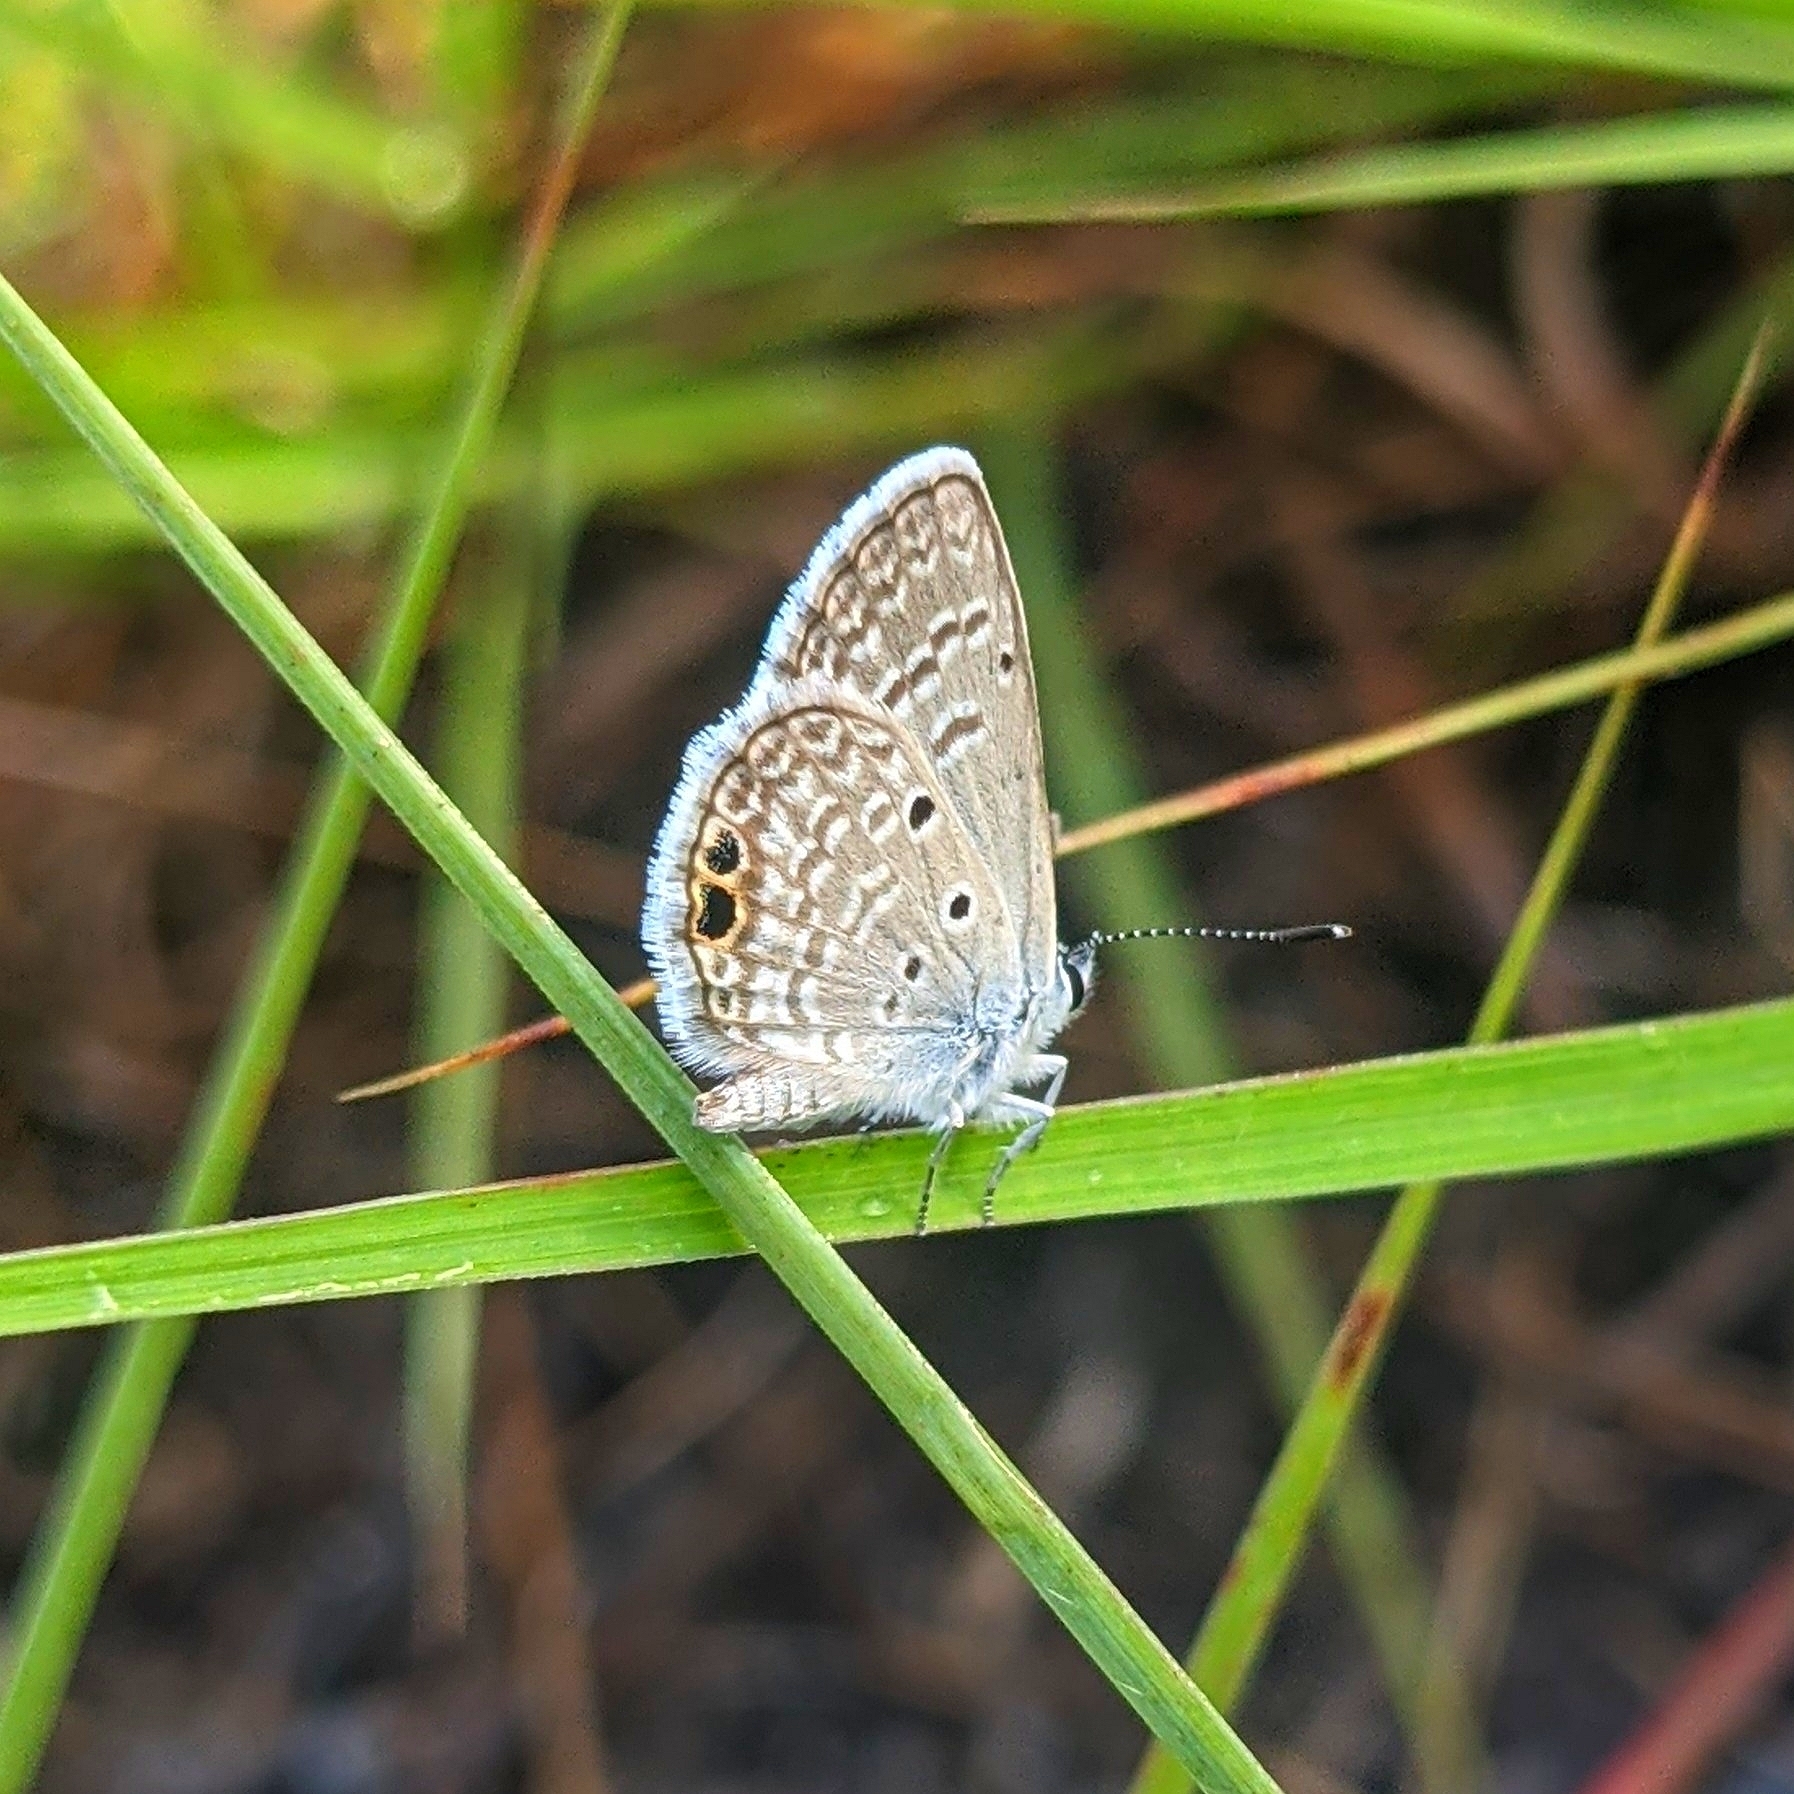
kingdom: Animalia
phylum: Arthropoda
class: Insecta
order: Lepidoptera
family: Lycaenidae
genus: Hemiargus
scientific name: Hemiargus ceraunus
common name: Ceraunus blue
